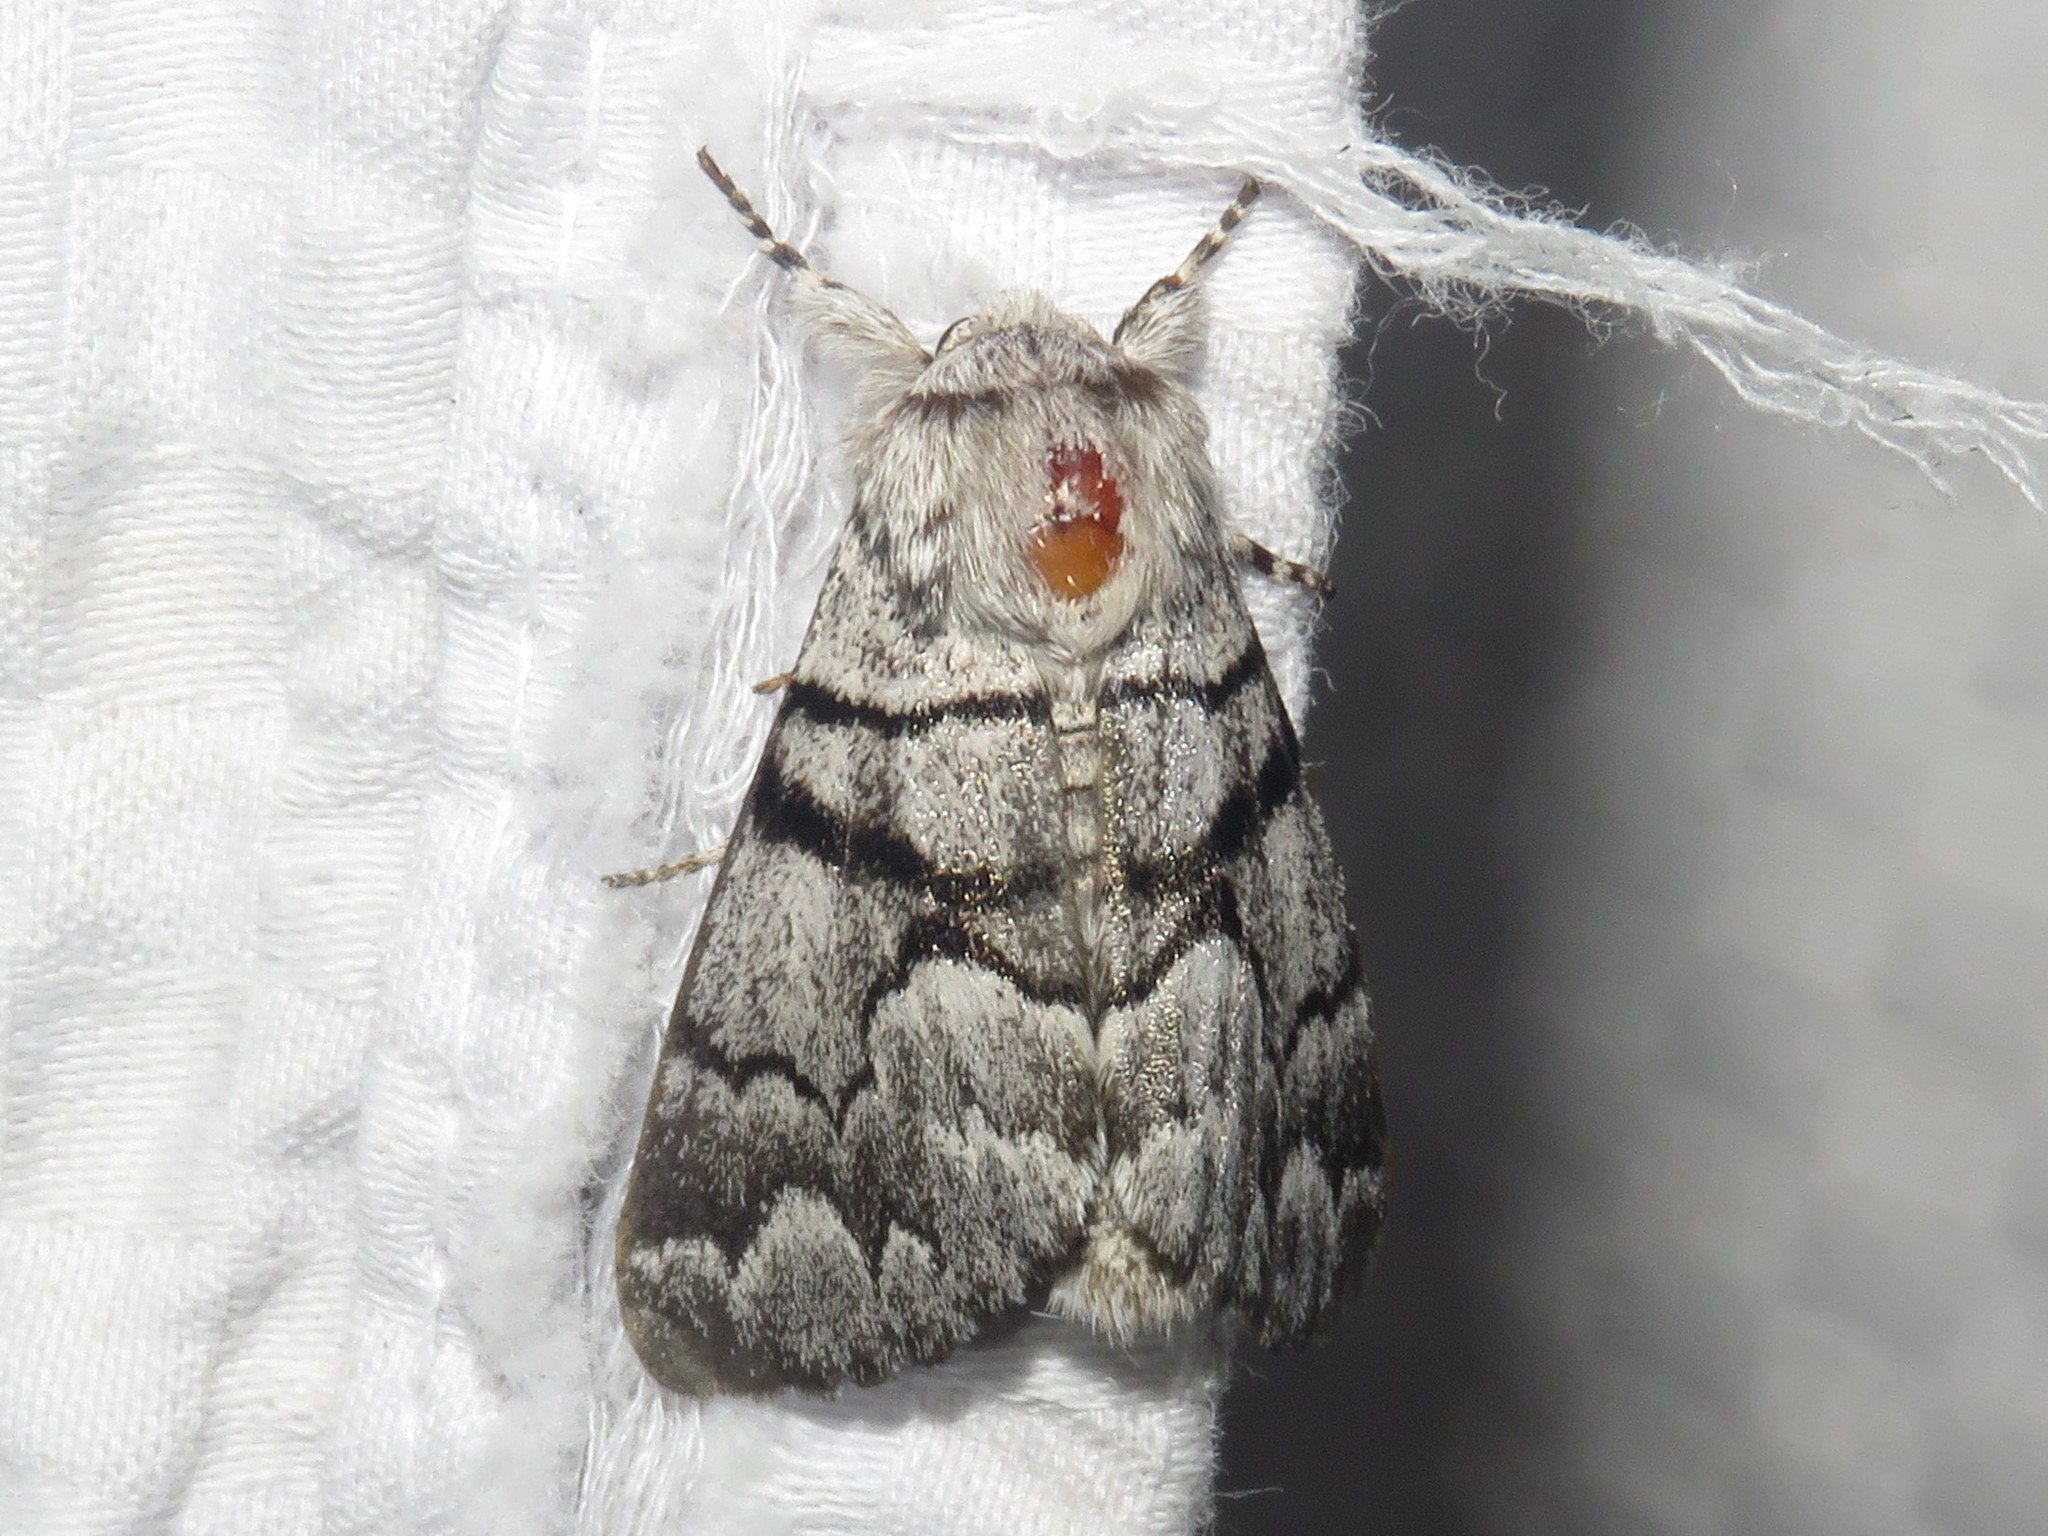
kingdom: Animalia
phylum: Arthropoda
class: Insecta
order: Lepidoptera
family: Noctuidae
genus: Panthea
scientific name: Panthea furcilla
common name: Eastern panthea moth
